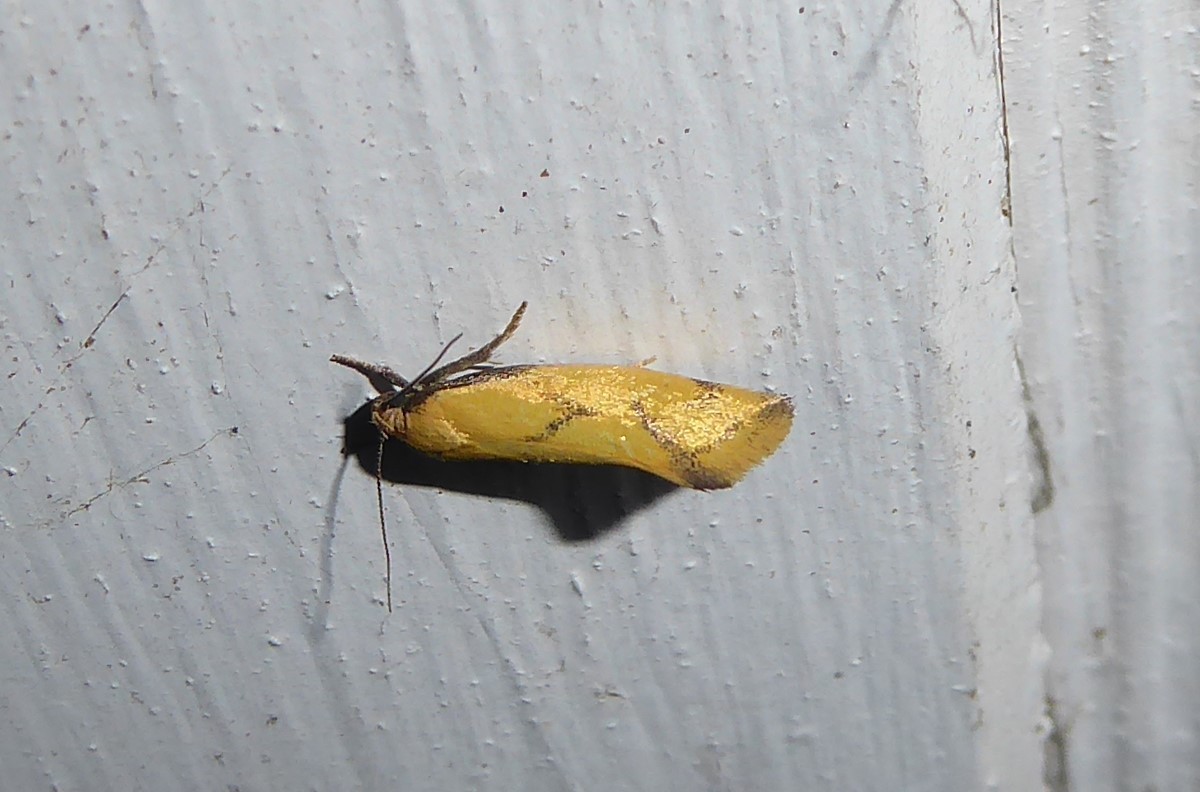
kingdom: Animalia
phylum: Arthropoda
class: Insecta
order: Lepidoptera
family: Oecophoridae
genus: Tingena
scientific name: Tingena actinias
